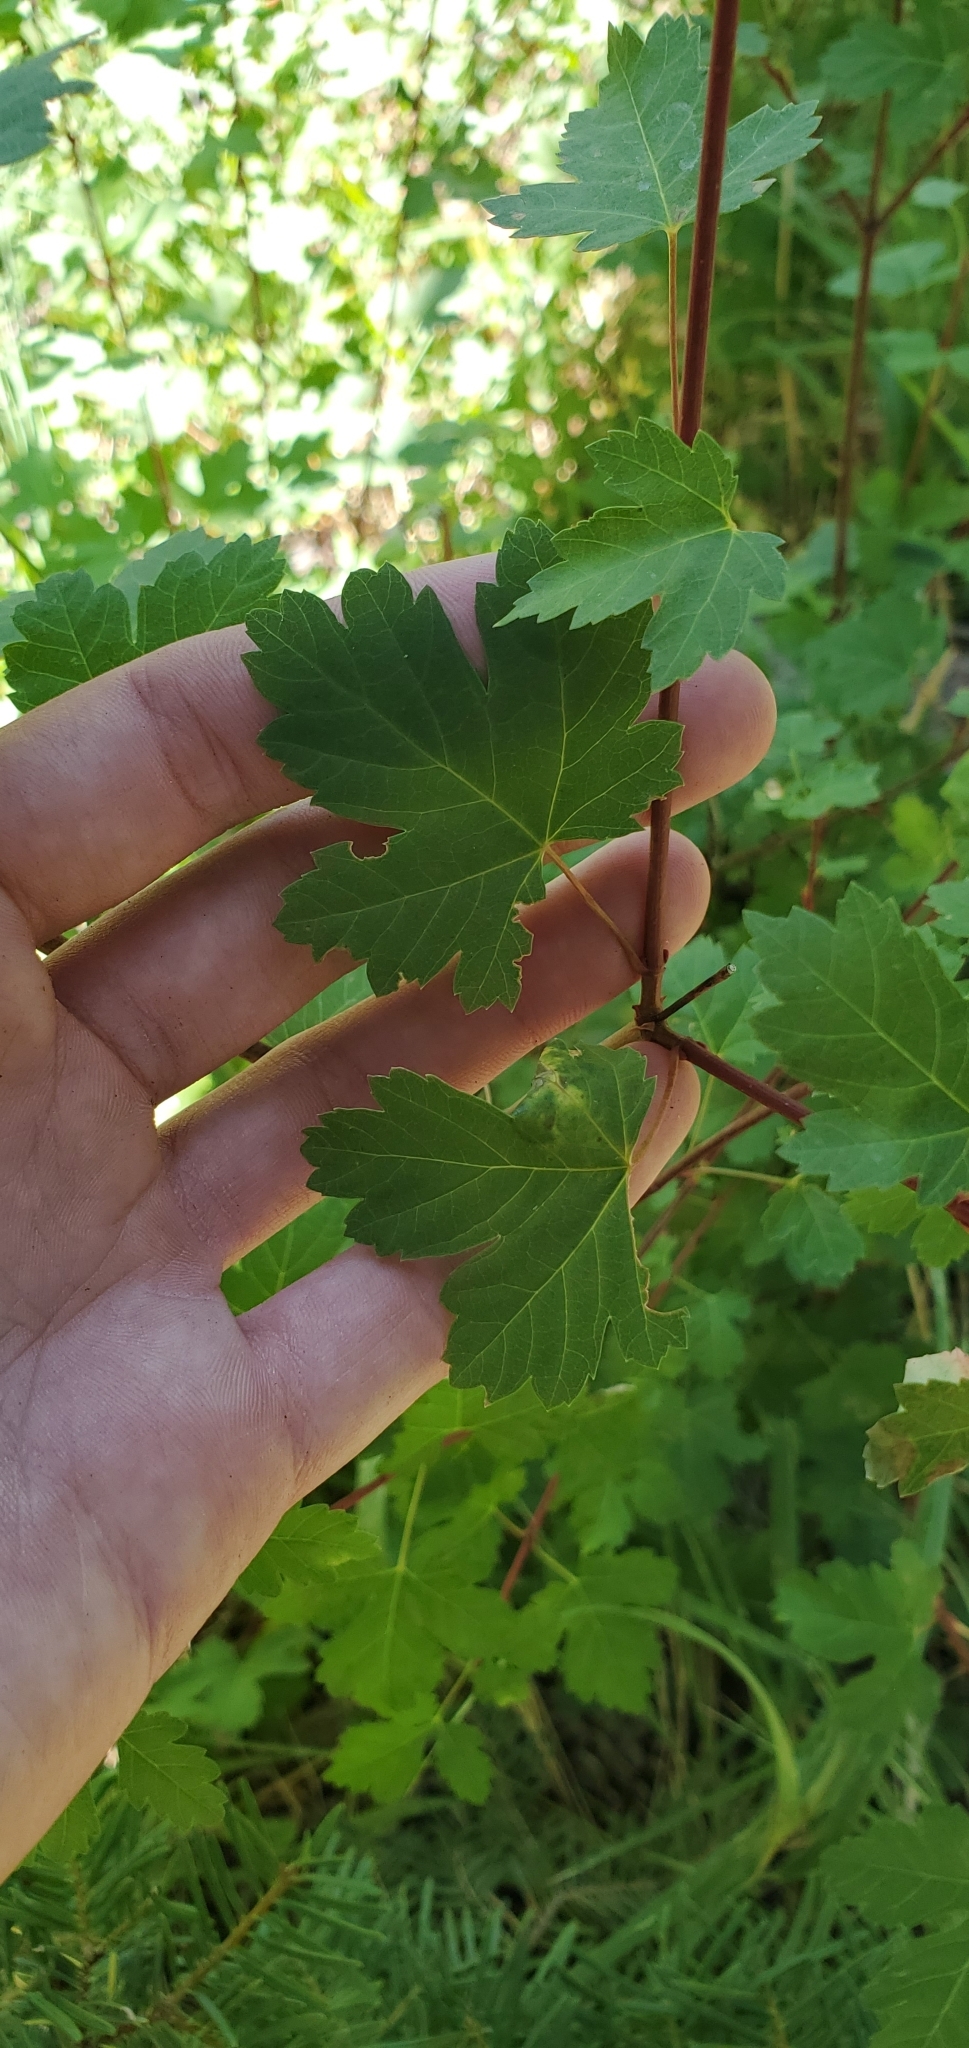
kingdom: Plantae
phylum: Tracheophyta
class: Magnoliopsida
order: Sapindales
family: Sapindaceae
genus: Acer
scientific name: Acer glabrum
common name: Rocky mountain maple
